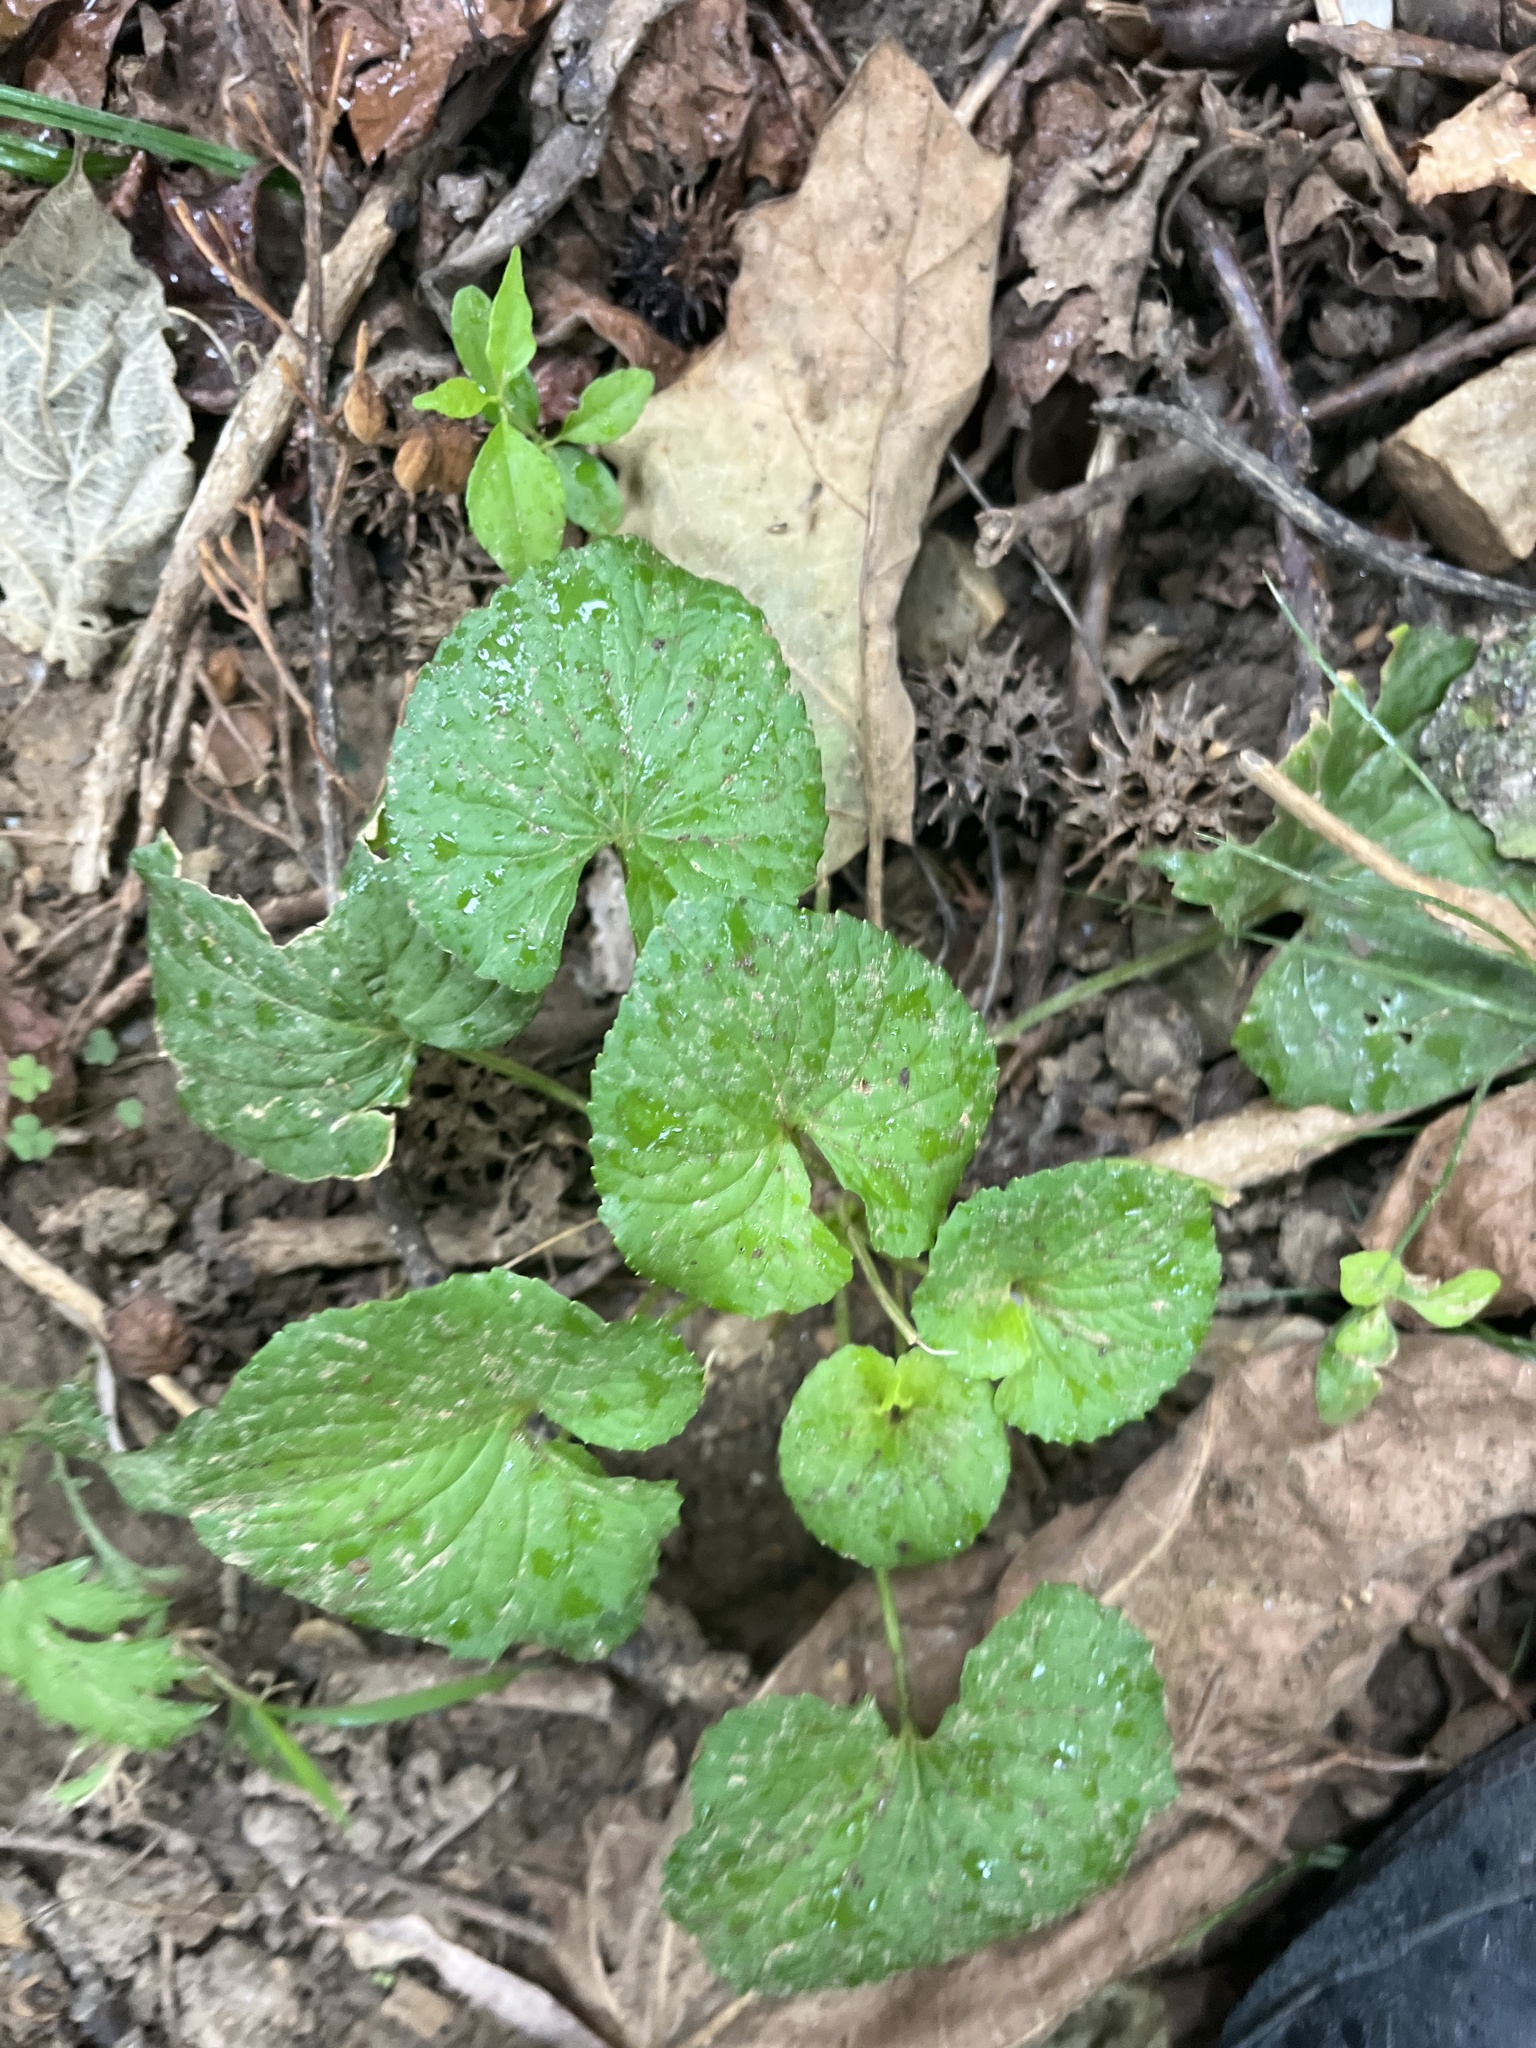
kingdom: Plantae
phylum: Tracheophyta
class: Magnoliopsida
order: Malpighiales
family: Violaceae
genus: Viola
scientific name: Viola sororia
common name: Dooryard violet
